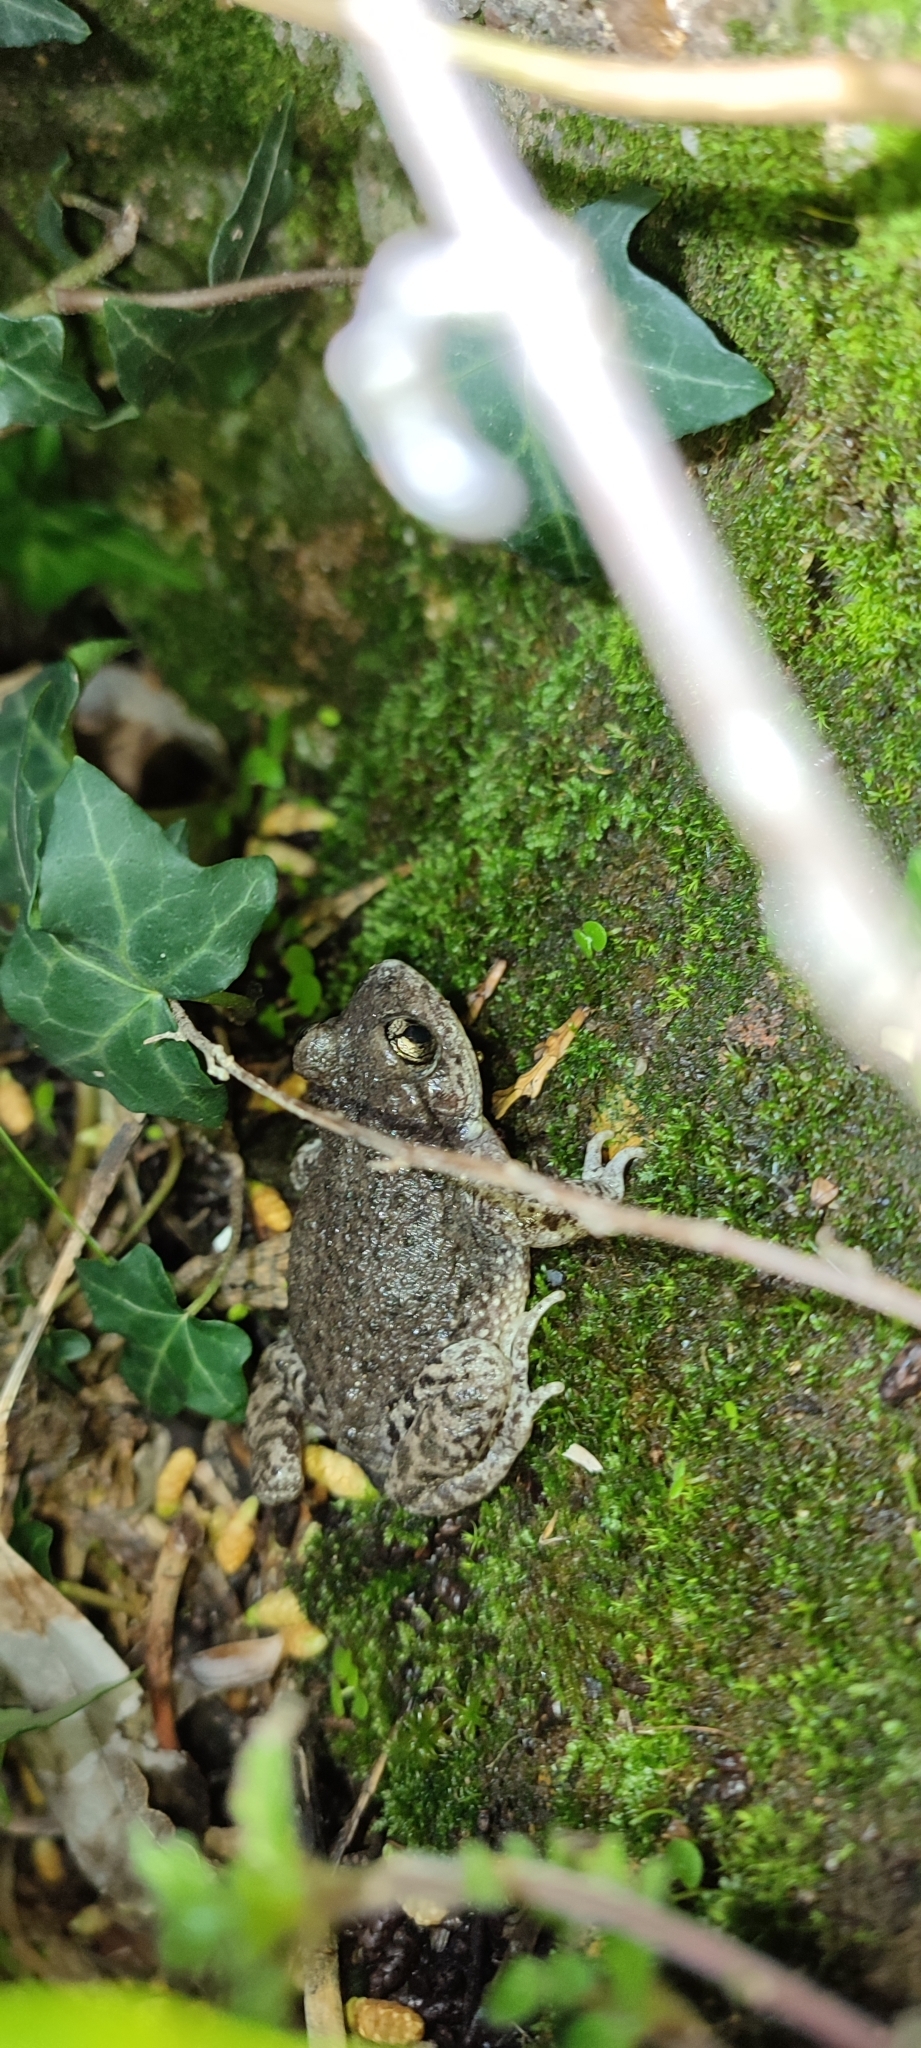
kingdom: Animalia
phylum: Chordata
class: Amphibia
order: Anura
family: Alytidae
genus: Alytes
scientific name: Alytes obstetricans
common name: Midwife toad
